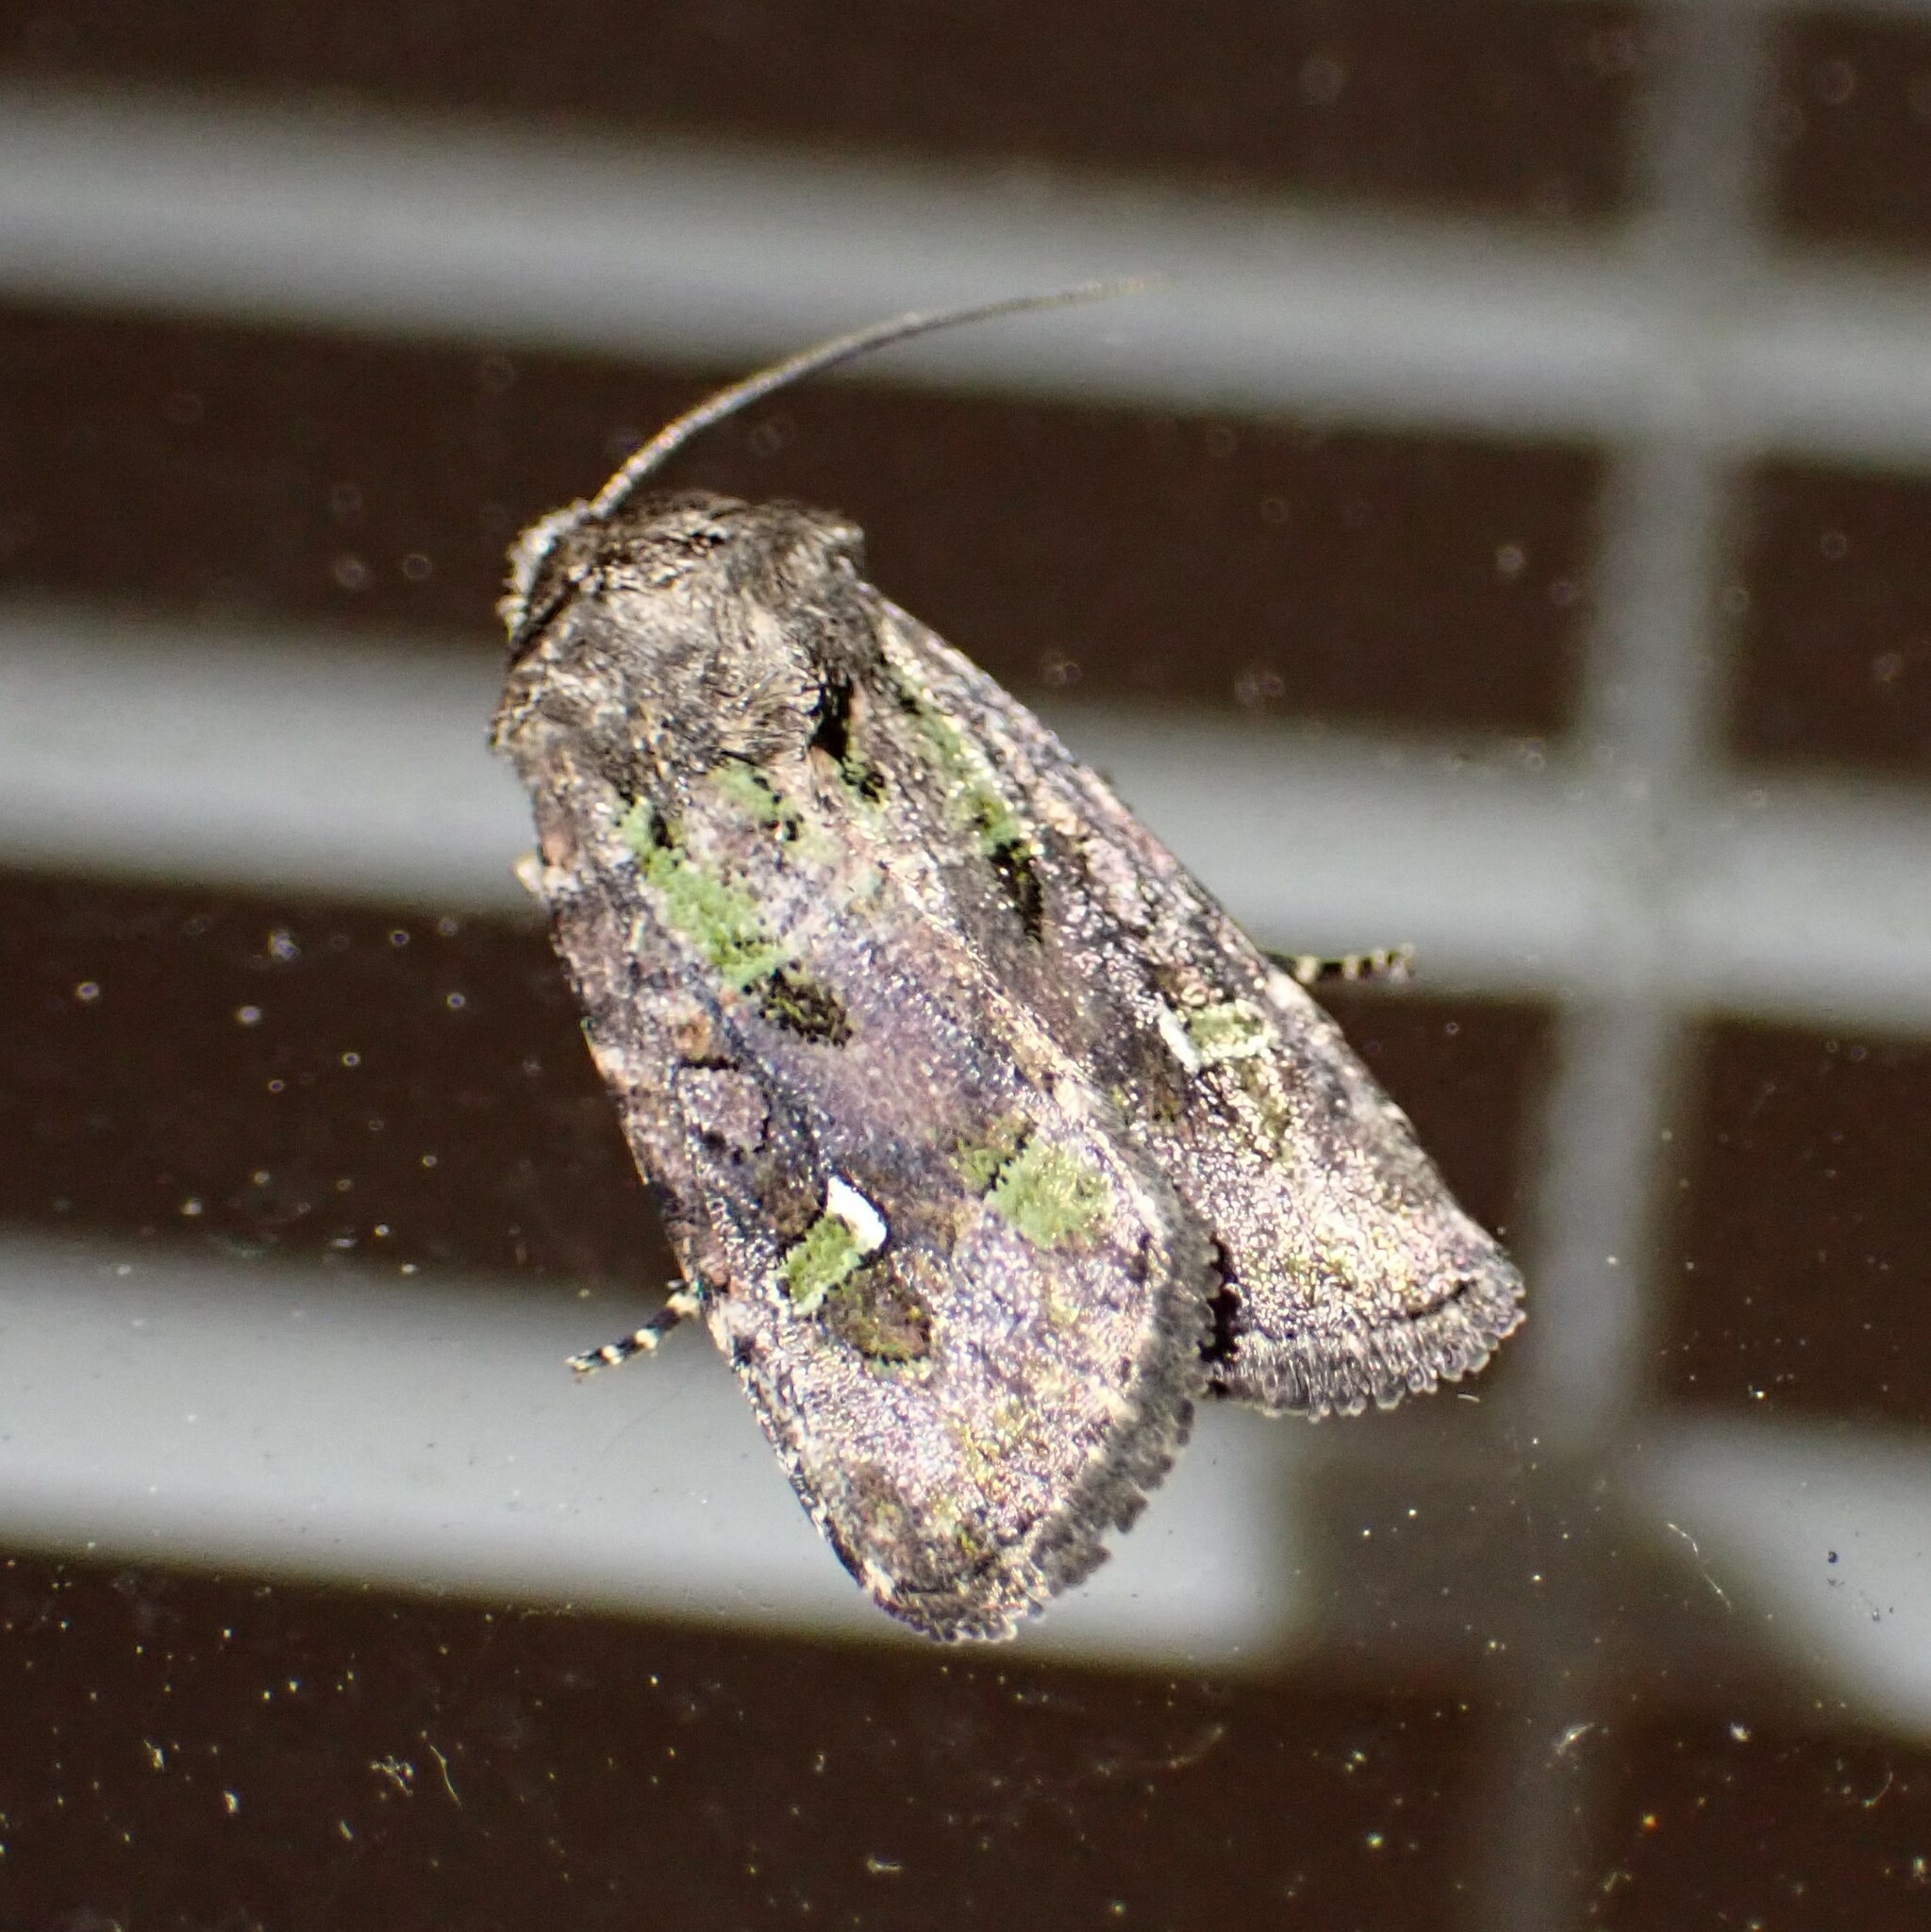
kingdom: Animalia
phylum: Arthropoda
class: Insecta
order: Lepidoptera
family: Noctuidae
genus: Lacinipolia
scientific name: Lacinipolia renigera
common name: Kidney-spotted minor
